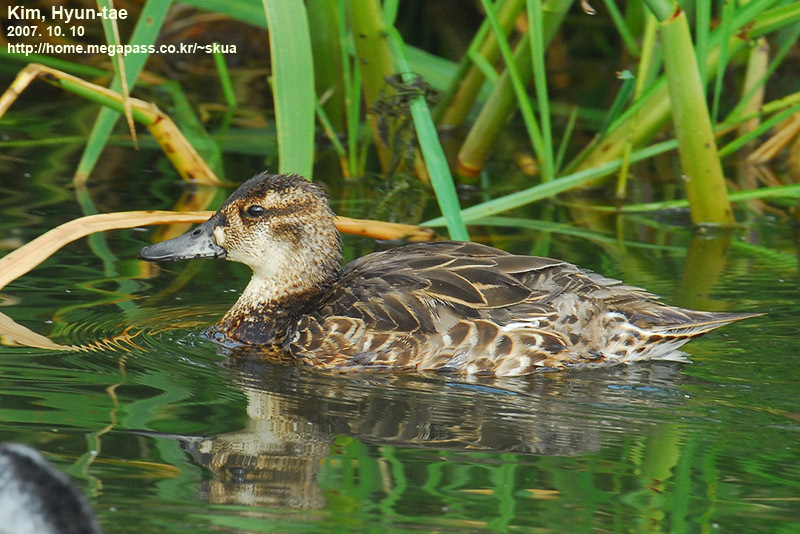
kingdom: Animalia
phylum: Chordata
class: Aves
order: Anseriformes
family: Anatidae
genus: Sibirionetta
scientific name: Sibirionetta formosa
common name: Baikal teal
